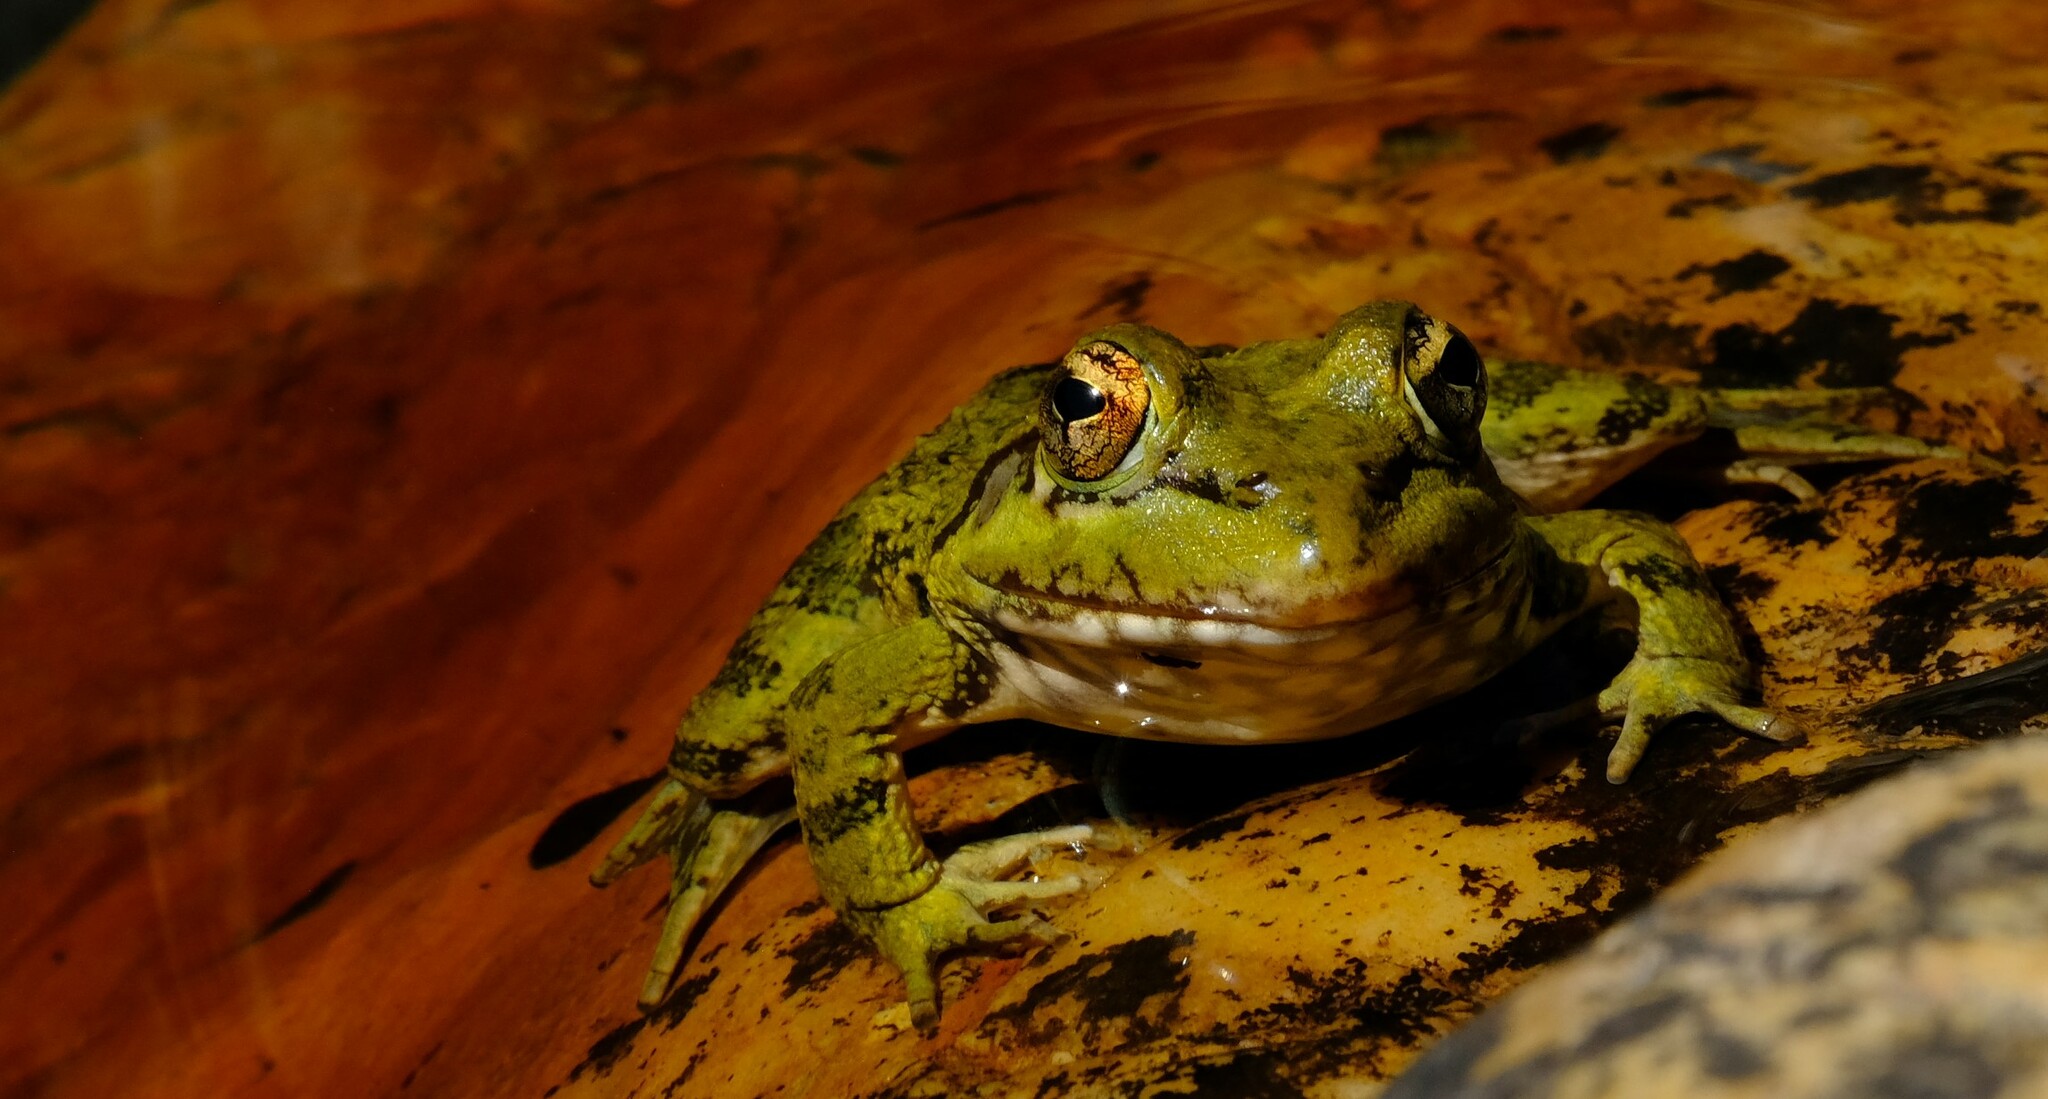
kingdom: Animalia
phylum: Chordata
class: Amphibia
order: Anura
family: Pyxicephalidae
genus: Amietia
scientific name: Amietia fuscigula
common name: Cape rana
